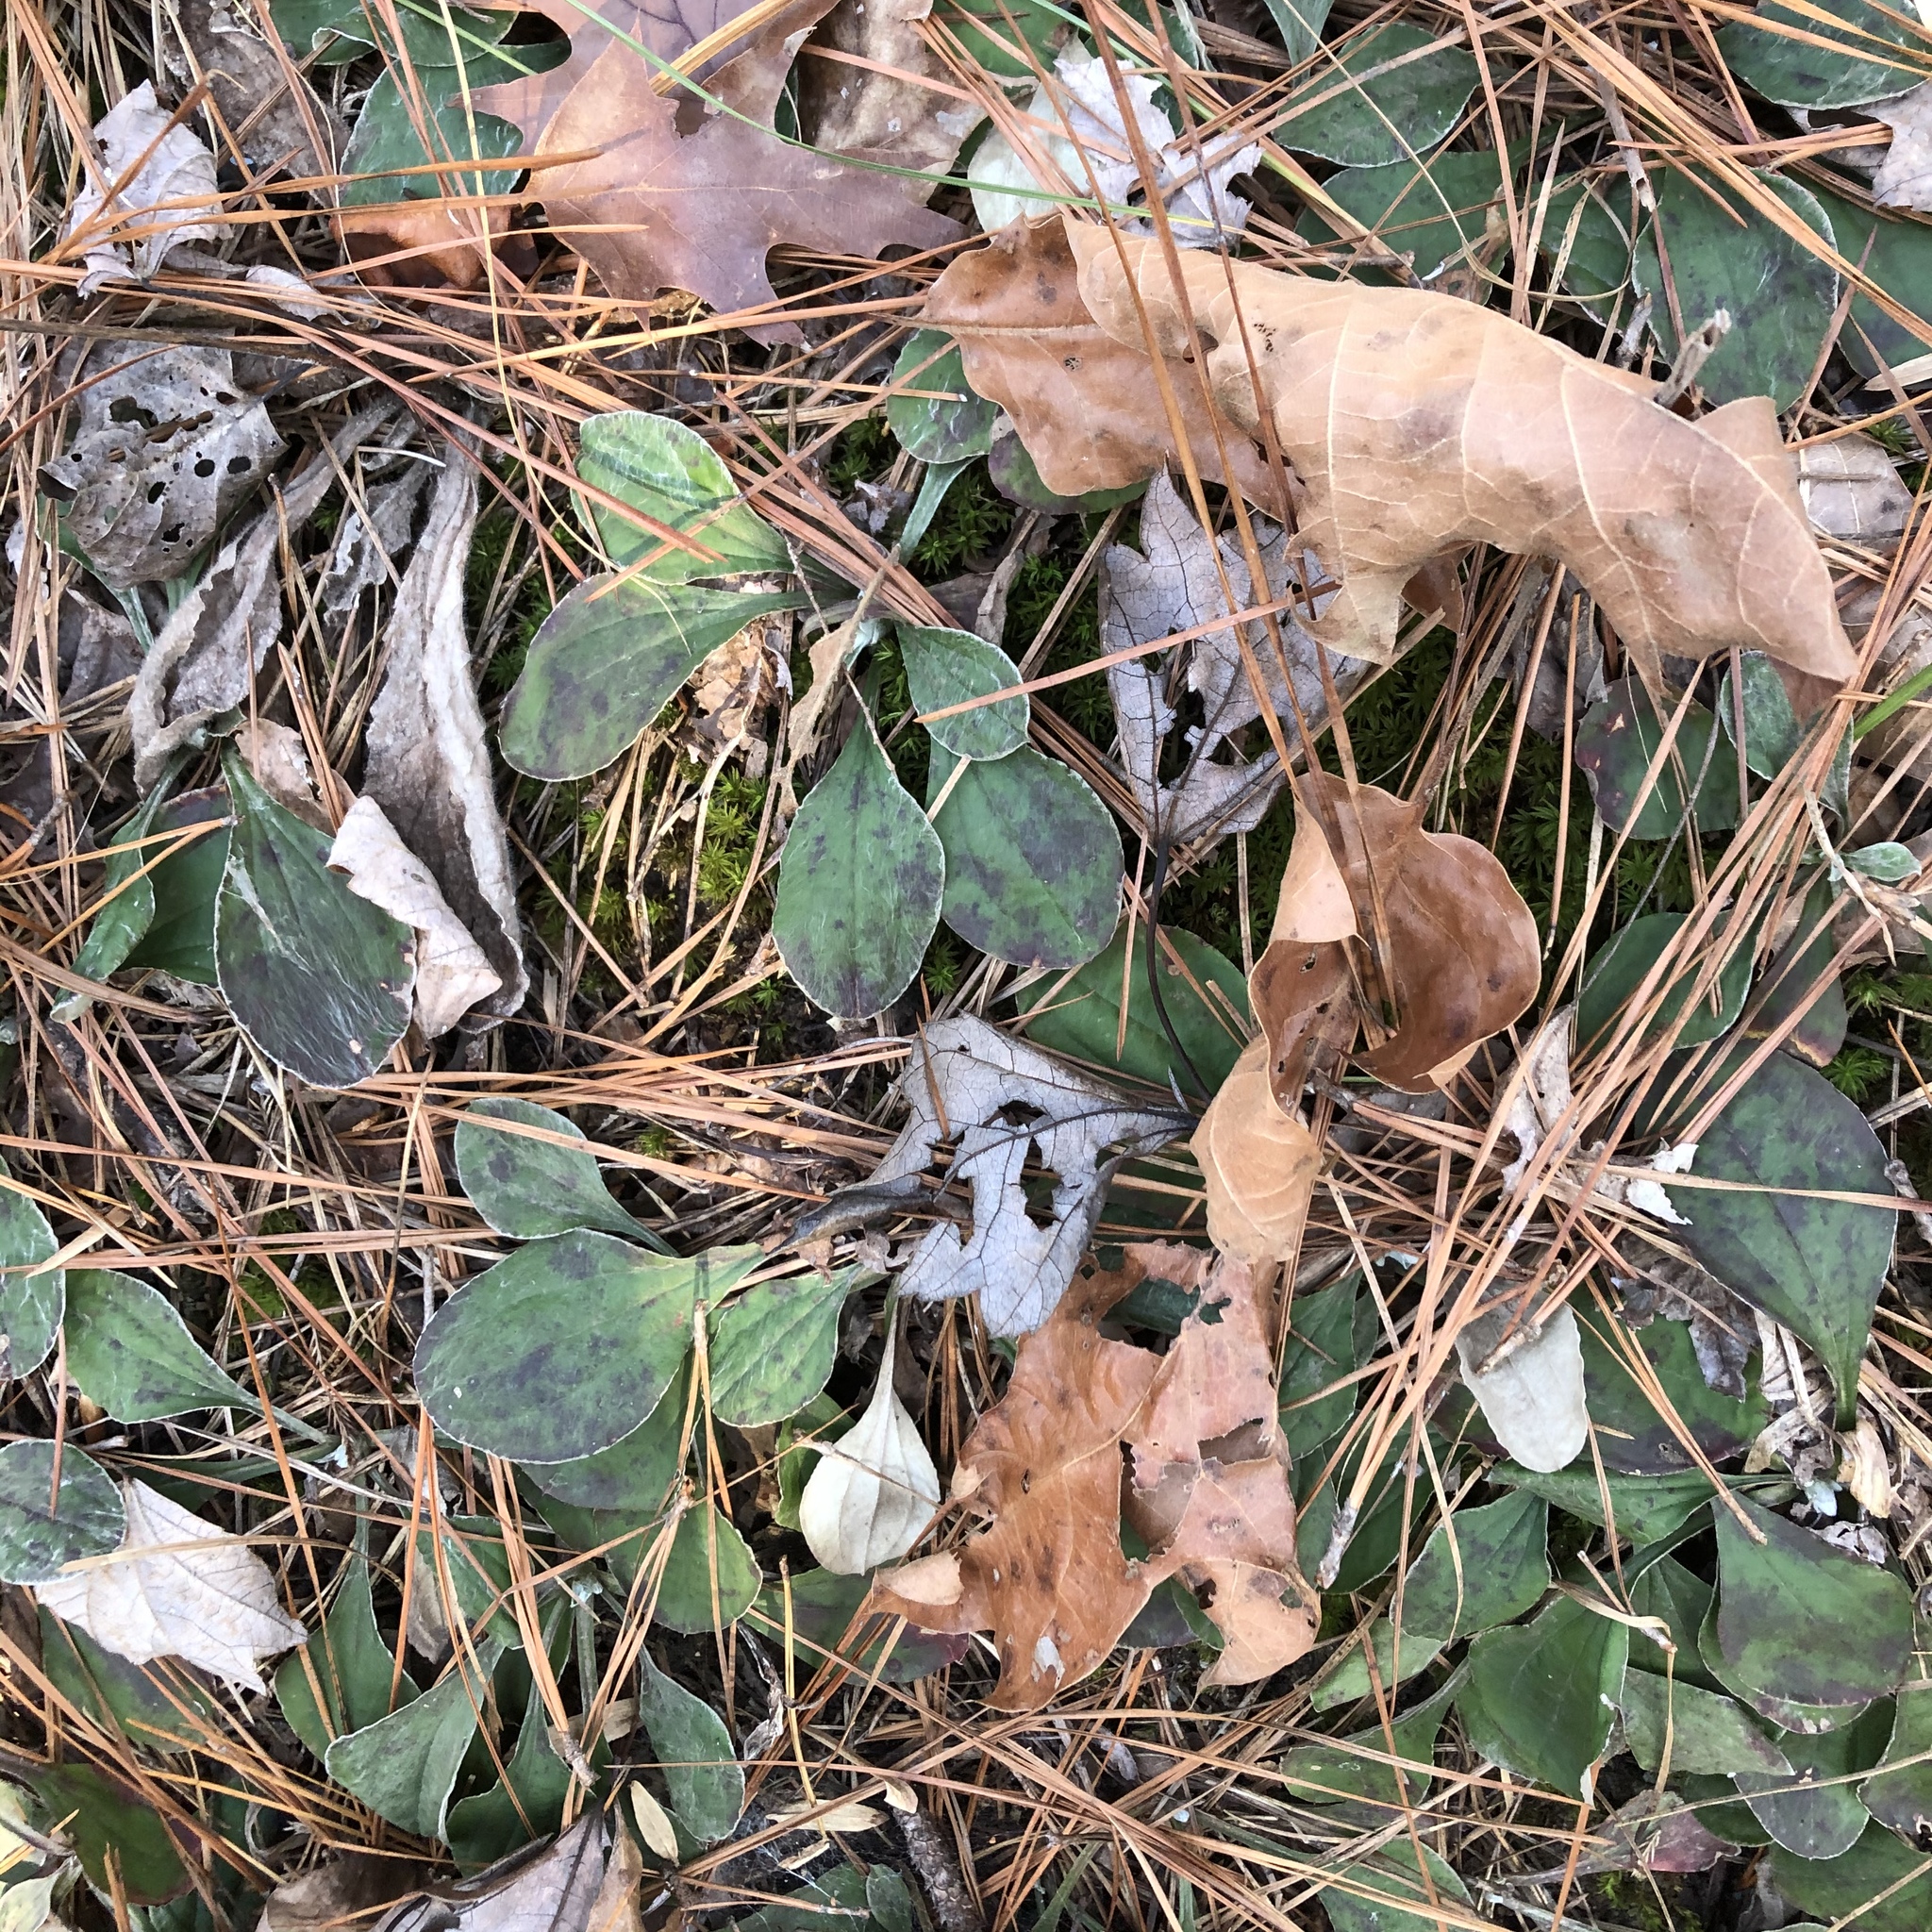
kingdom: Plantae
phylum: Tracheophyta
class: Magnoliopsida
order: Asterales
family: Asteraceae
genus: Antennaria
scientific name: Antennaria
